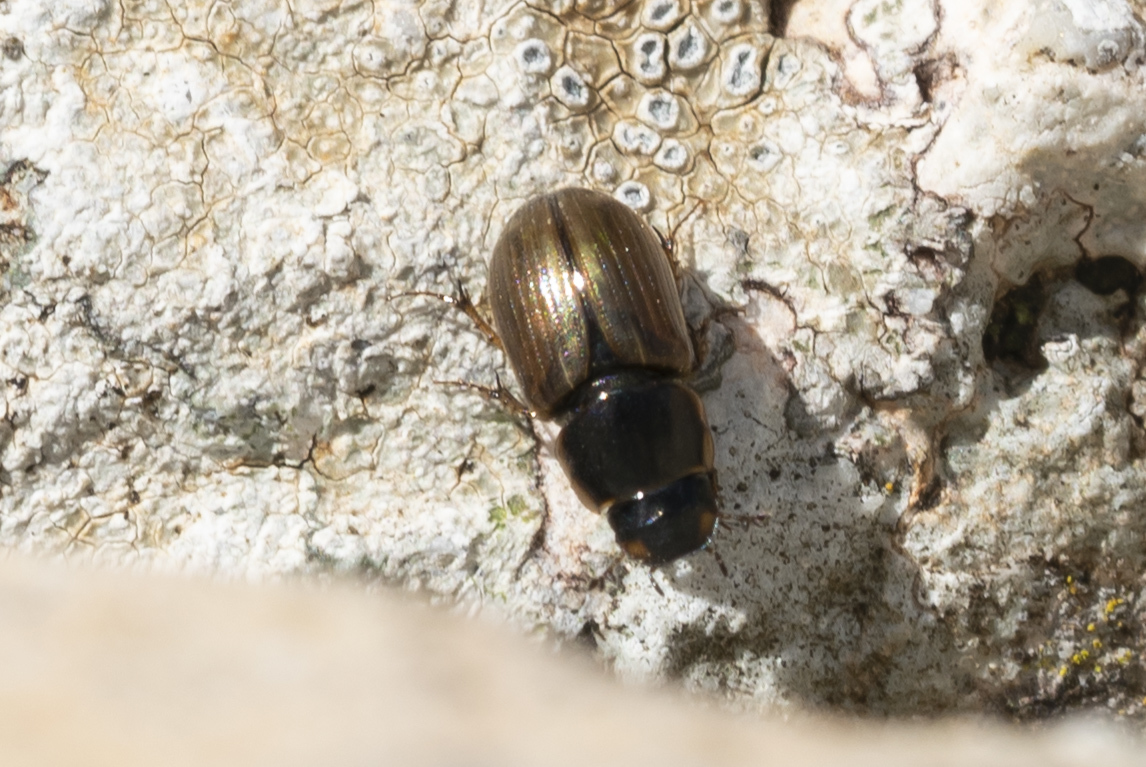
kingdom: Animalia
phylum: Arthropoda
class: Insecta
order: Coleoptera
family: Scarabaeidae
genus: Melinopterus
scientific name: Melinopterus consputus
